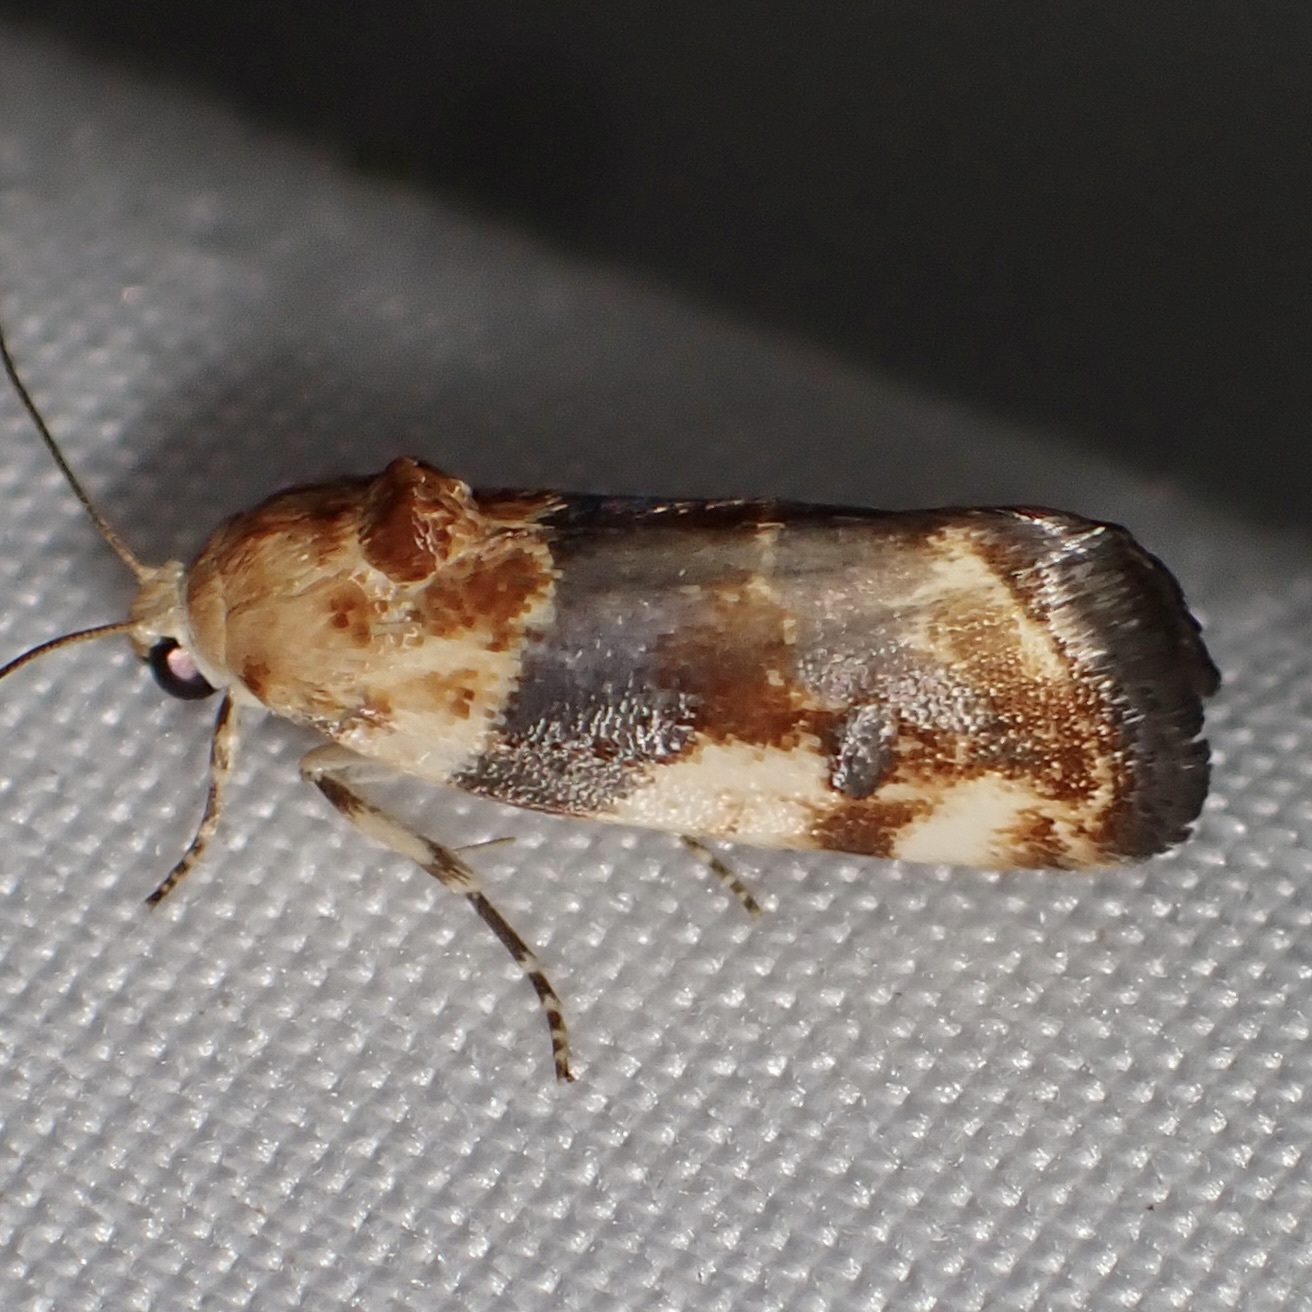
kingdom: Animalia
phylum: Arthropoda
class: Insecta
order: Lepidoptera
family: Noctuidae
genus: Acontia
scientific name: Acontia obatra
